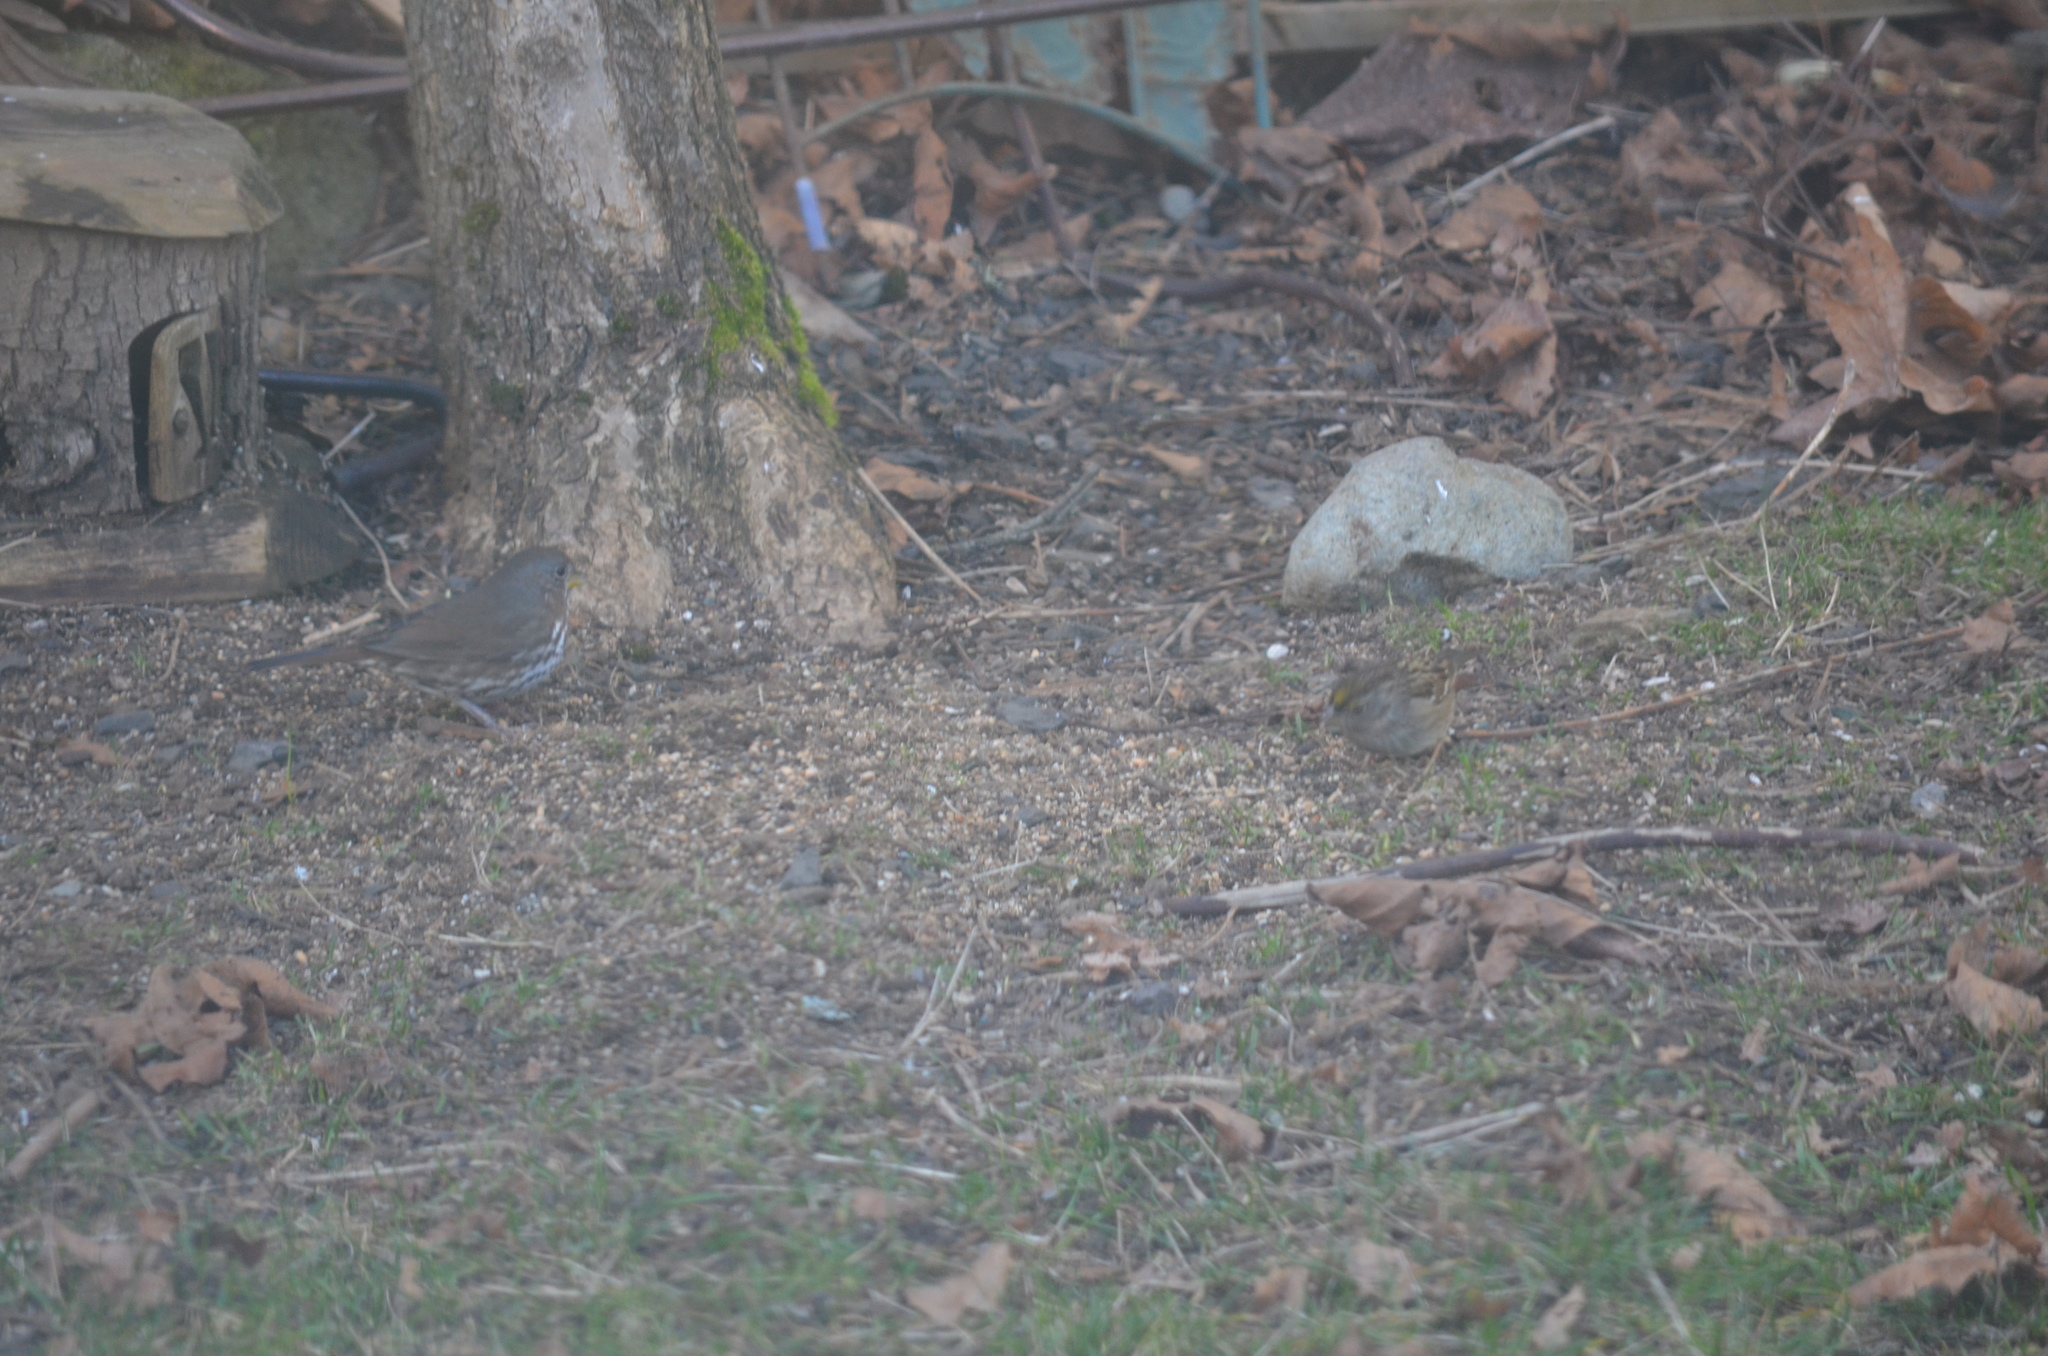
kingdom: Animalia
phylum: Chordata
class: Aves
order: Passeriformes
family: Passerellidae
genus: Passerella
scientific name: Passerella iliaca
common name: Fox sparrow
